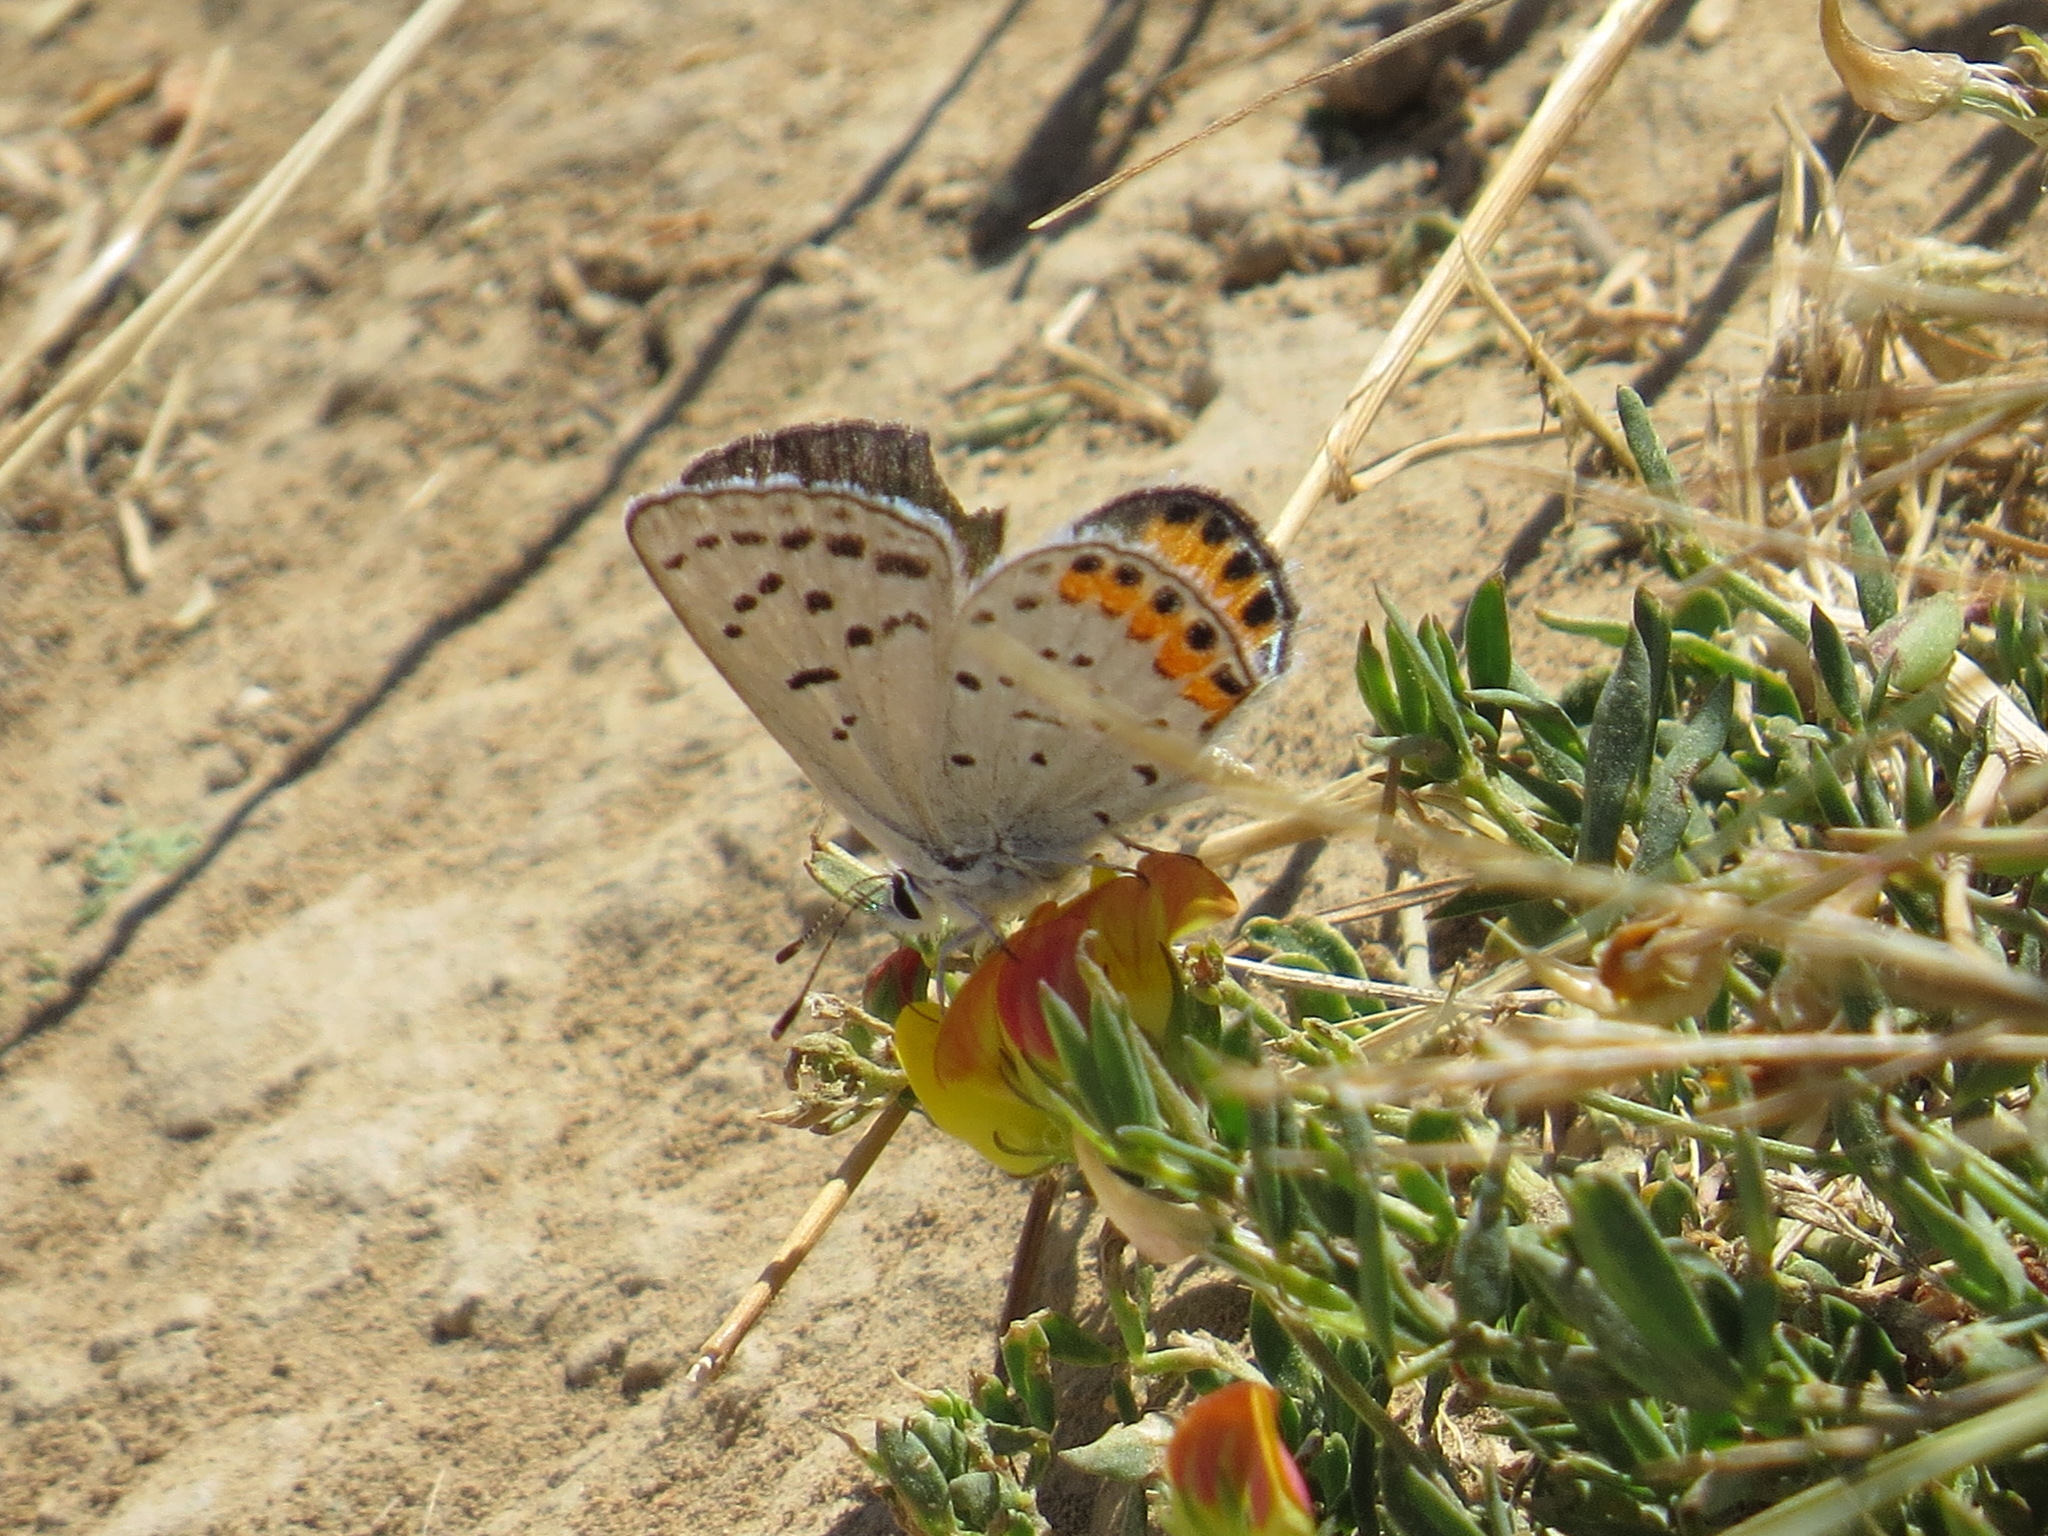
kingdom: Animalia
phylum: Arthropoda
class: Insecta
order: Lepidoptera
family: Lycaenidae
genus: Icaricia
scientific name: Icaricia acmon
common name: Acmon blue
